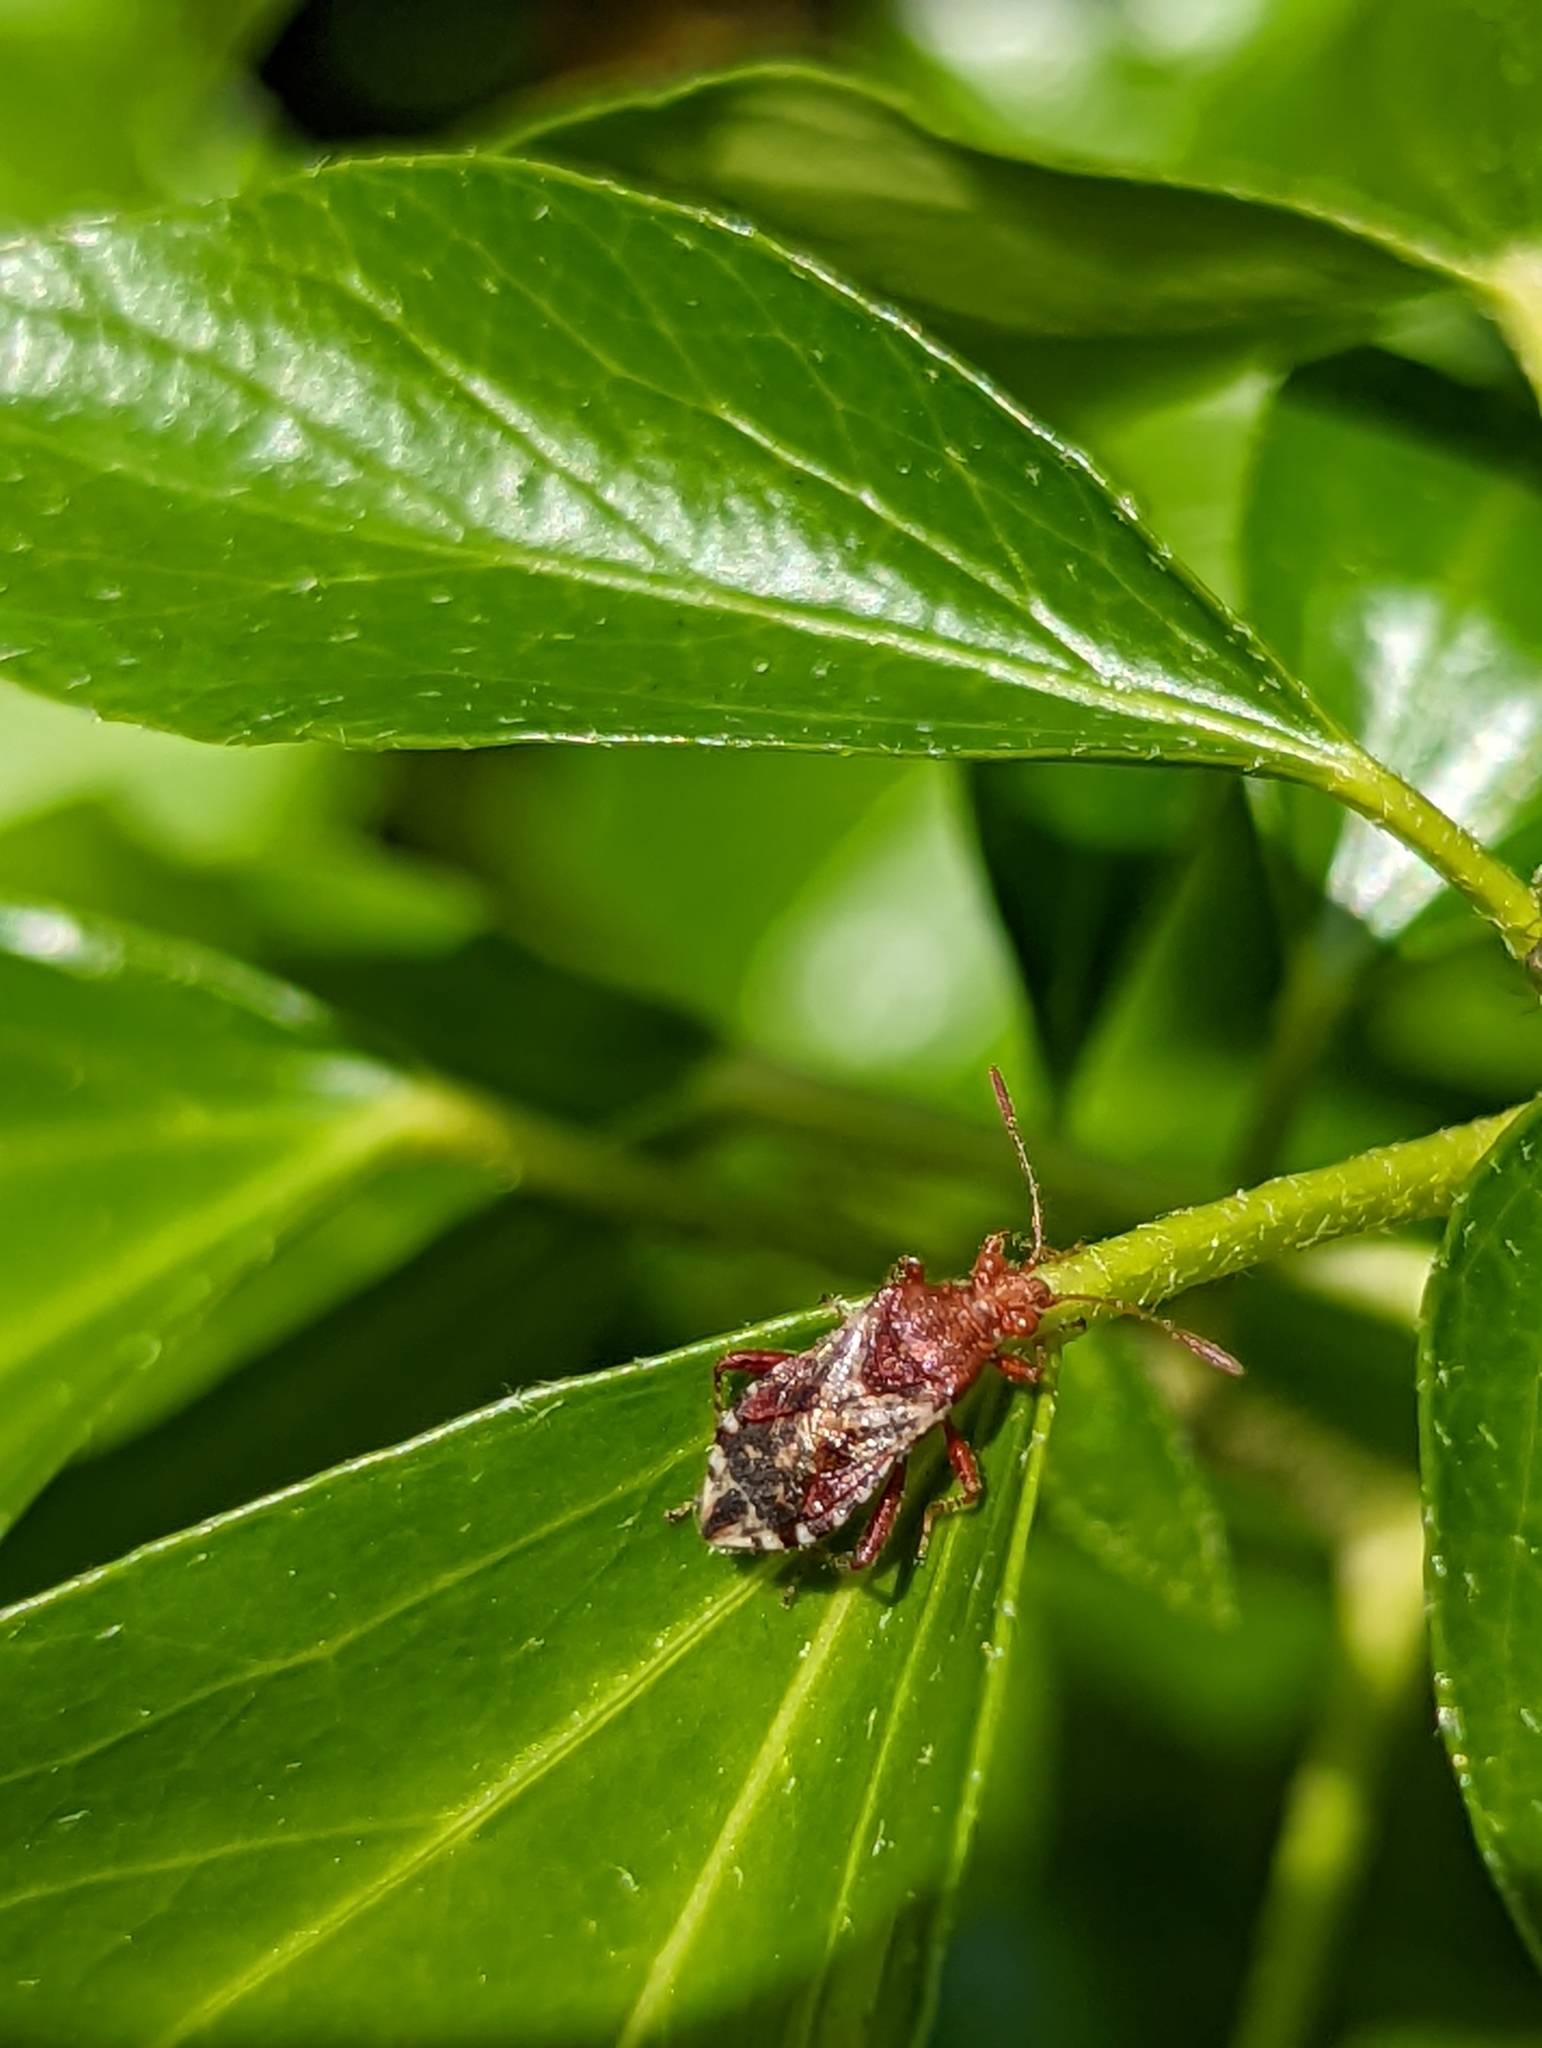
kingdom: Animalia
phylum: Arthropoda
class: Insecta
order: Hemiptera
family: Rhopalidae
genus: Rhopalus
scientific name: Rhopalus subrufus
